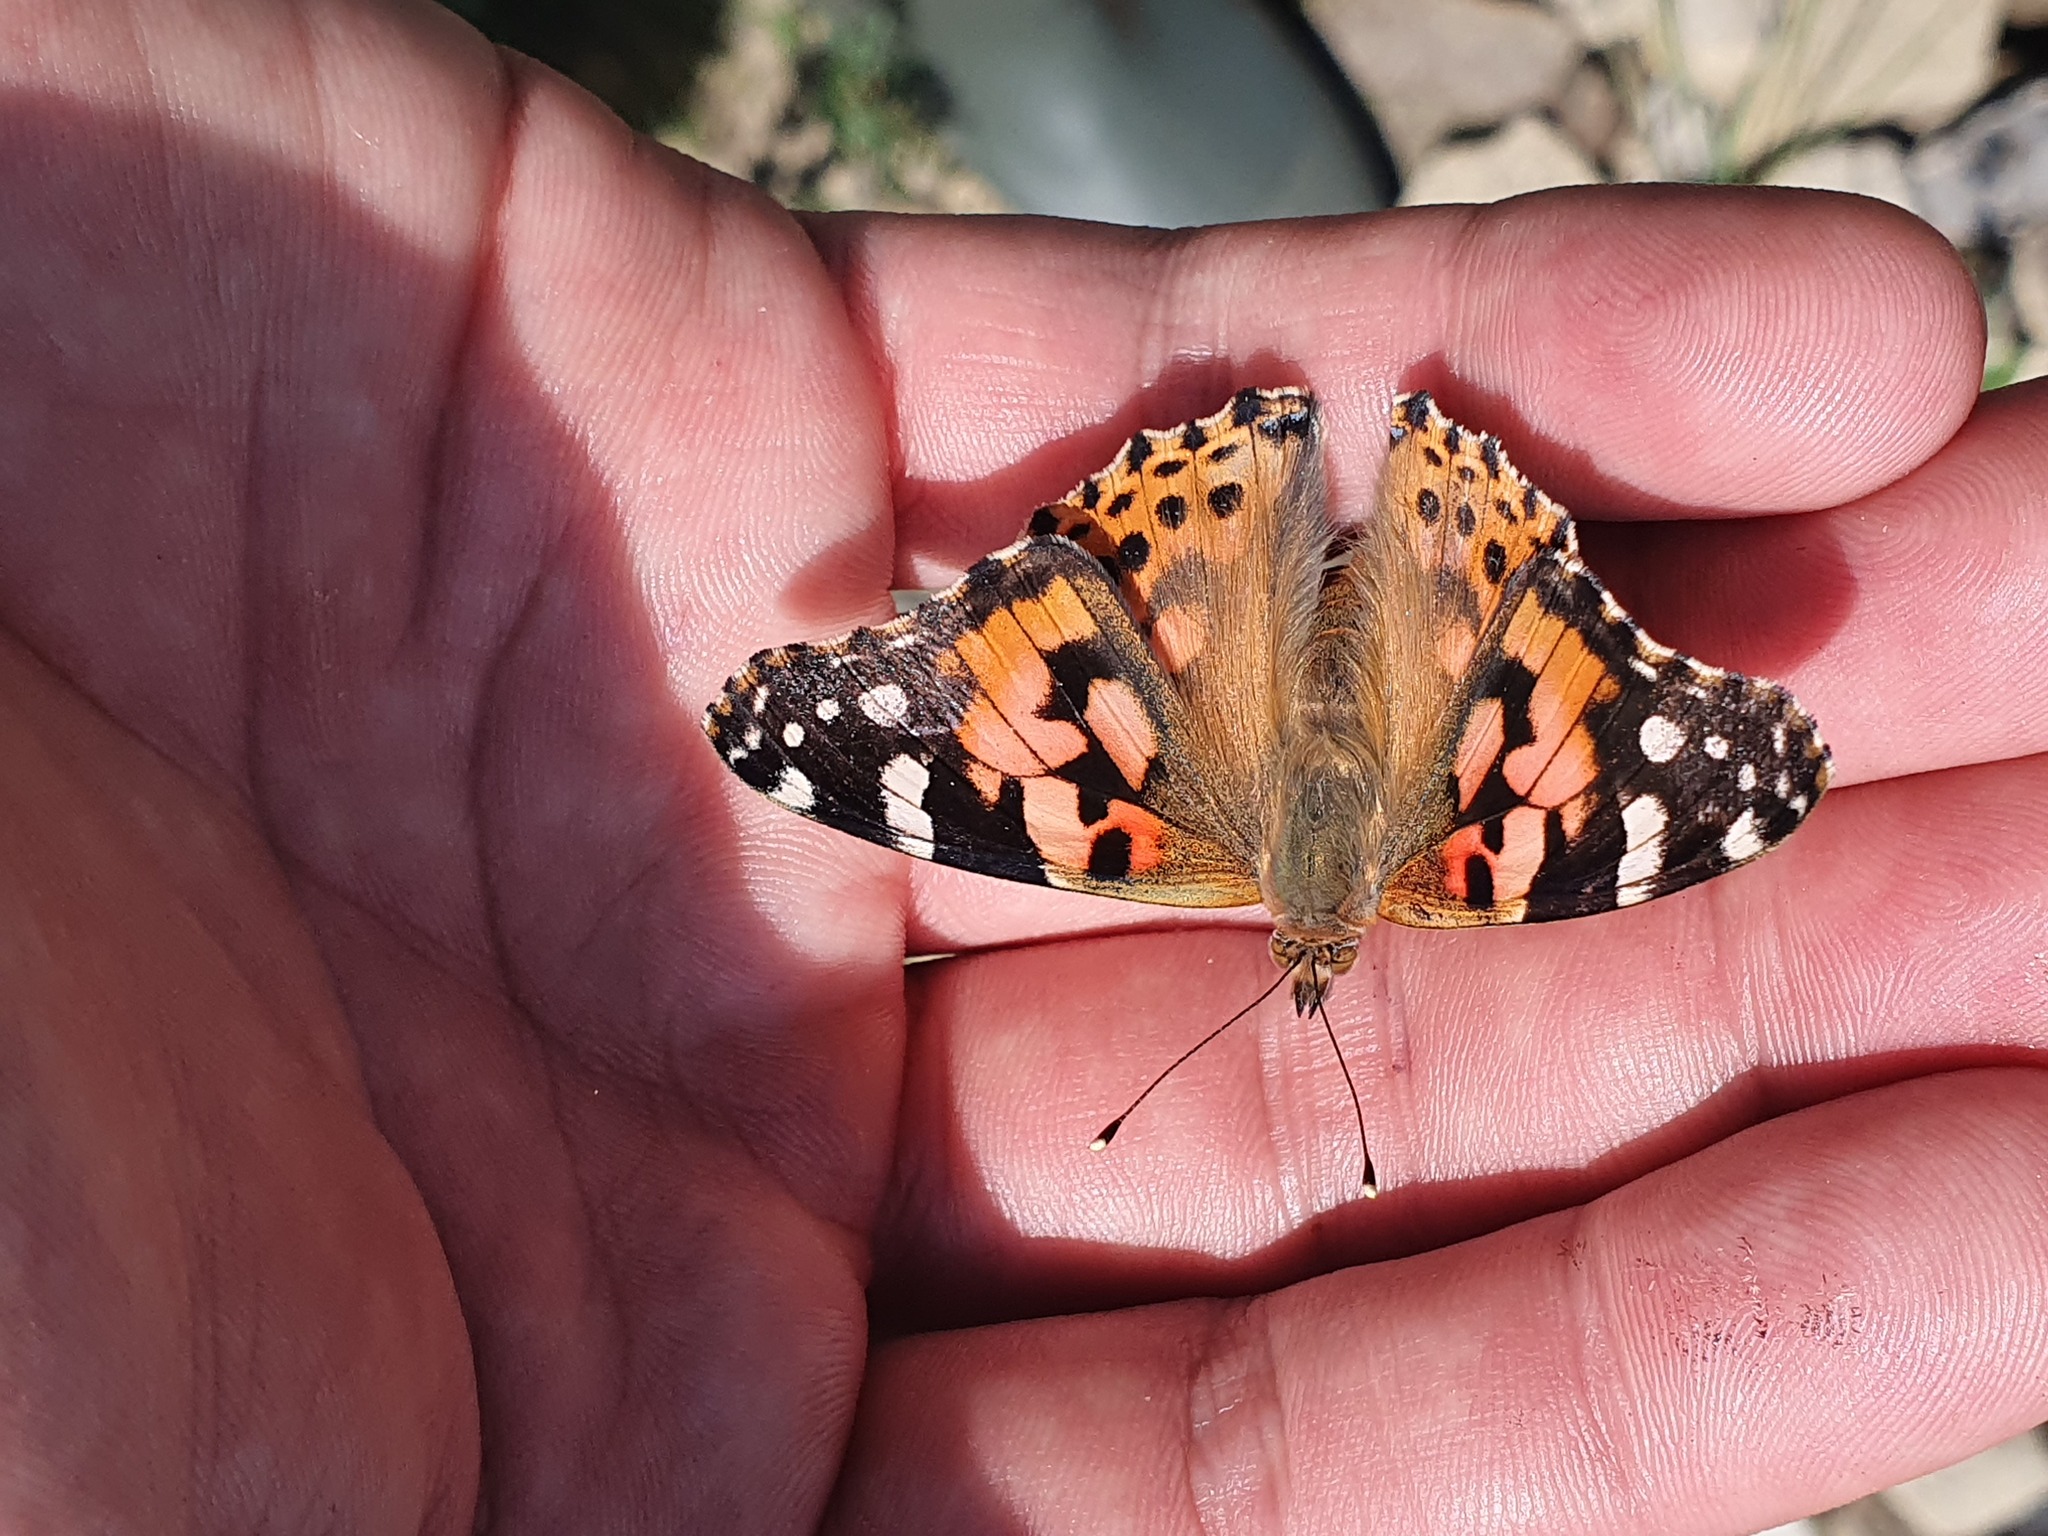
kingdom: Animalia
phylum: Arthropoda
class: Insecta
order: Lepidoptera
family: Nymphalidae
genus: Vanessa
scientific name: Vanessa cardui
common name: Painted lady
